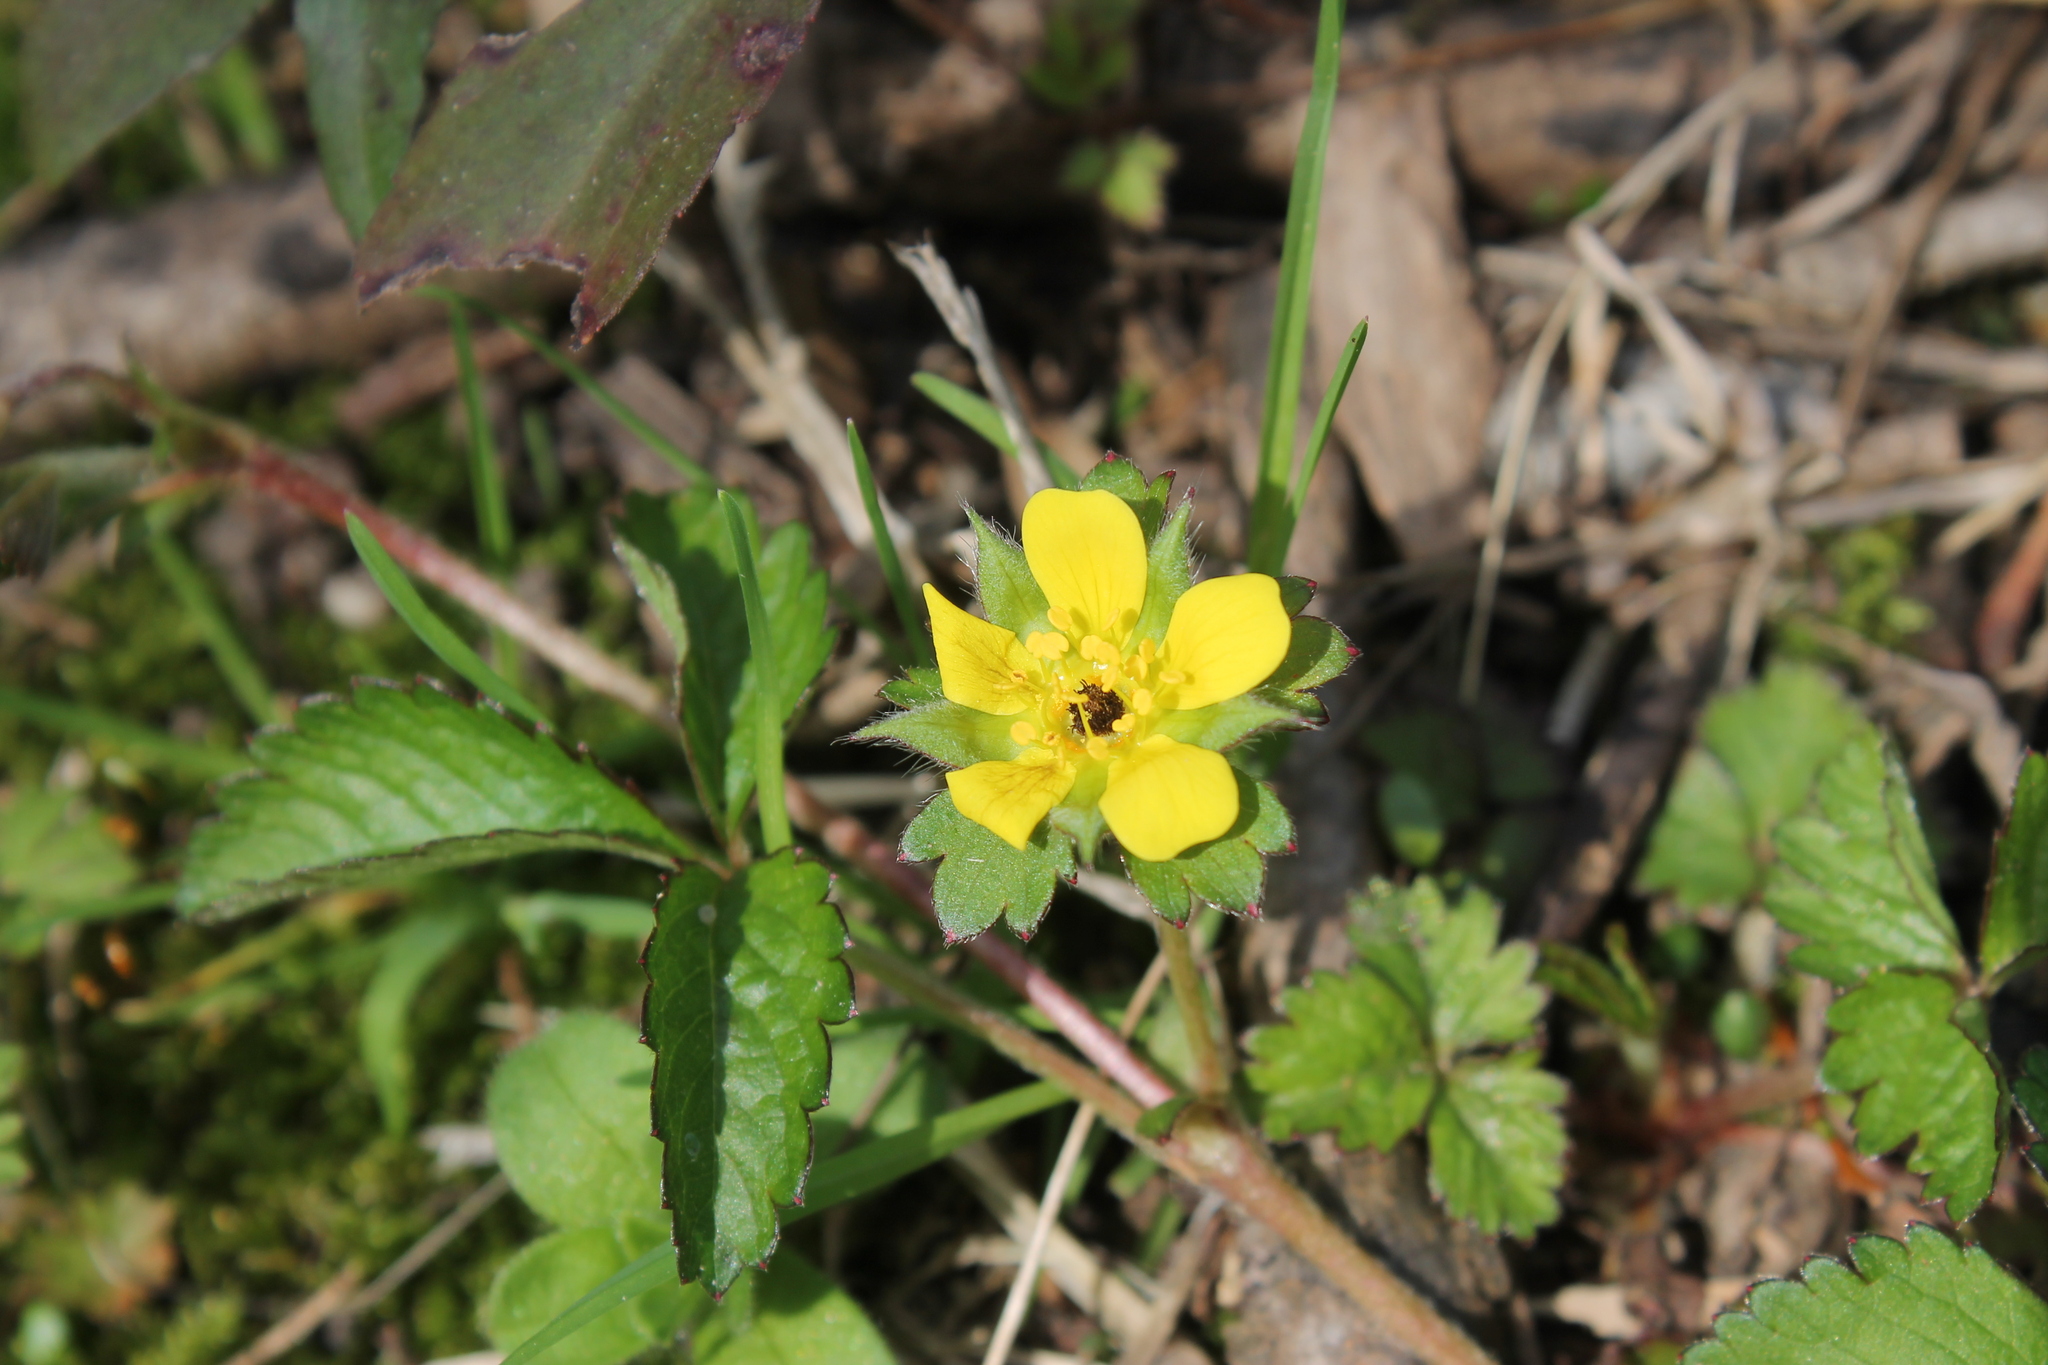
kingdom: Plantae
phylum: Tracheophyta
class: Magnoliopsida
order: Rosales
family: Rosaceae
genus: Potentilla
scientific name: Potentilla indica
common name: Yellow-flowered strawberry
